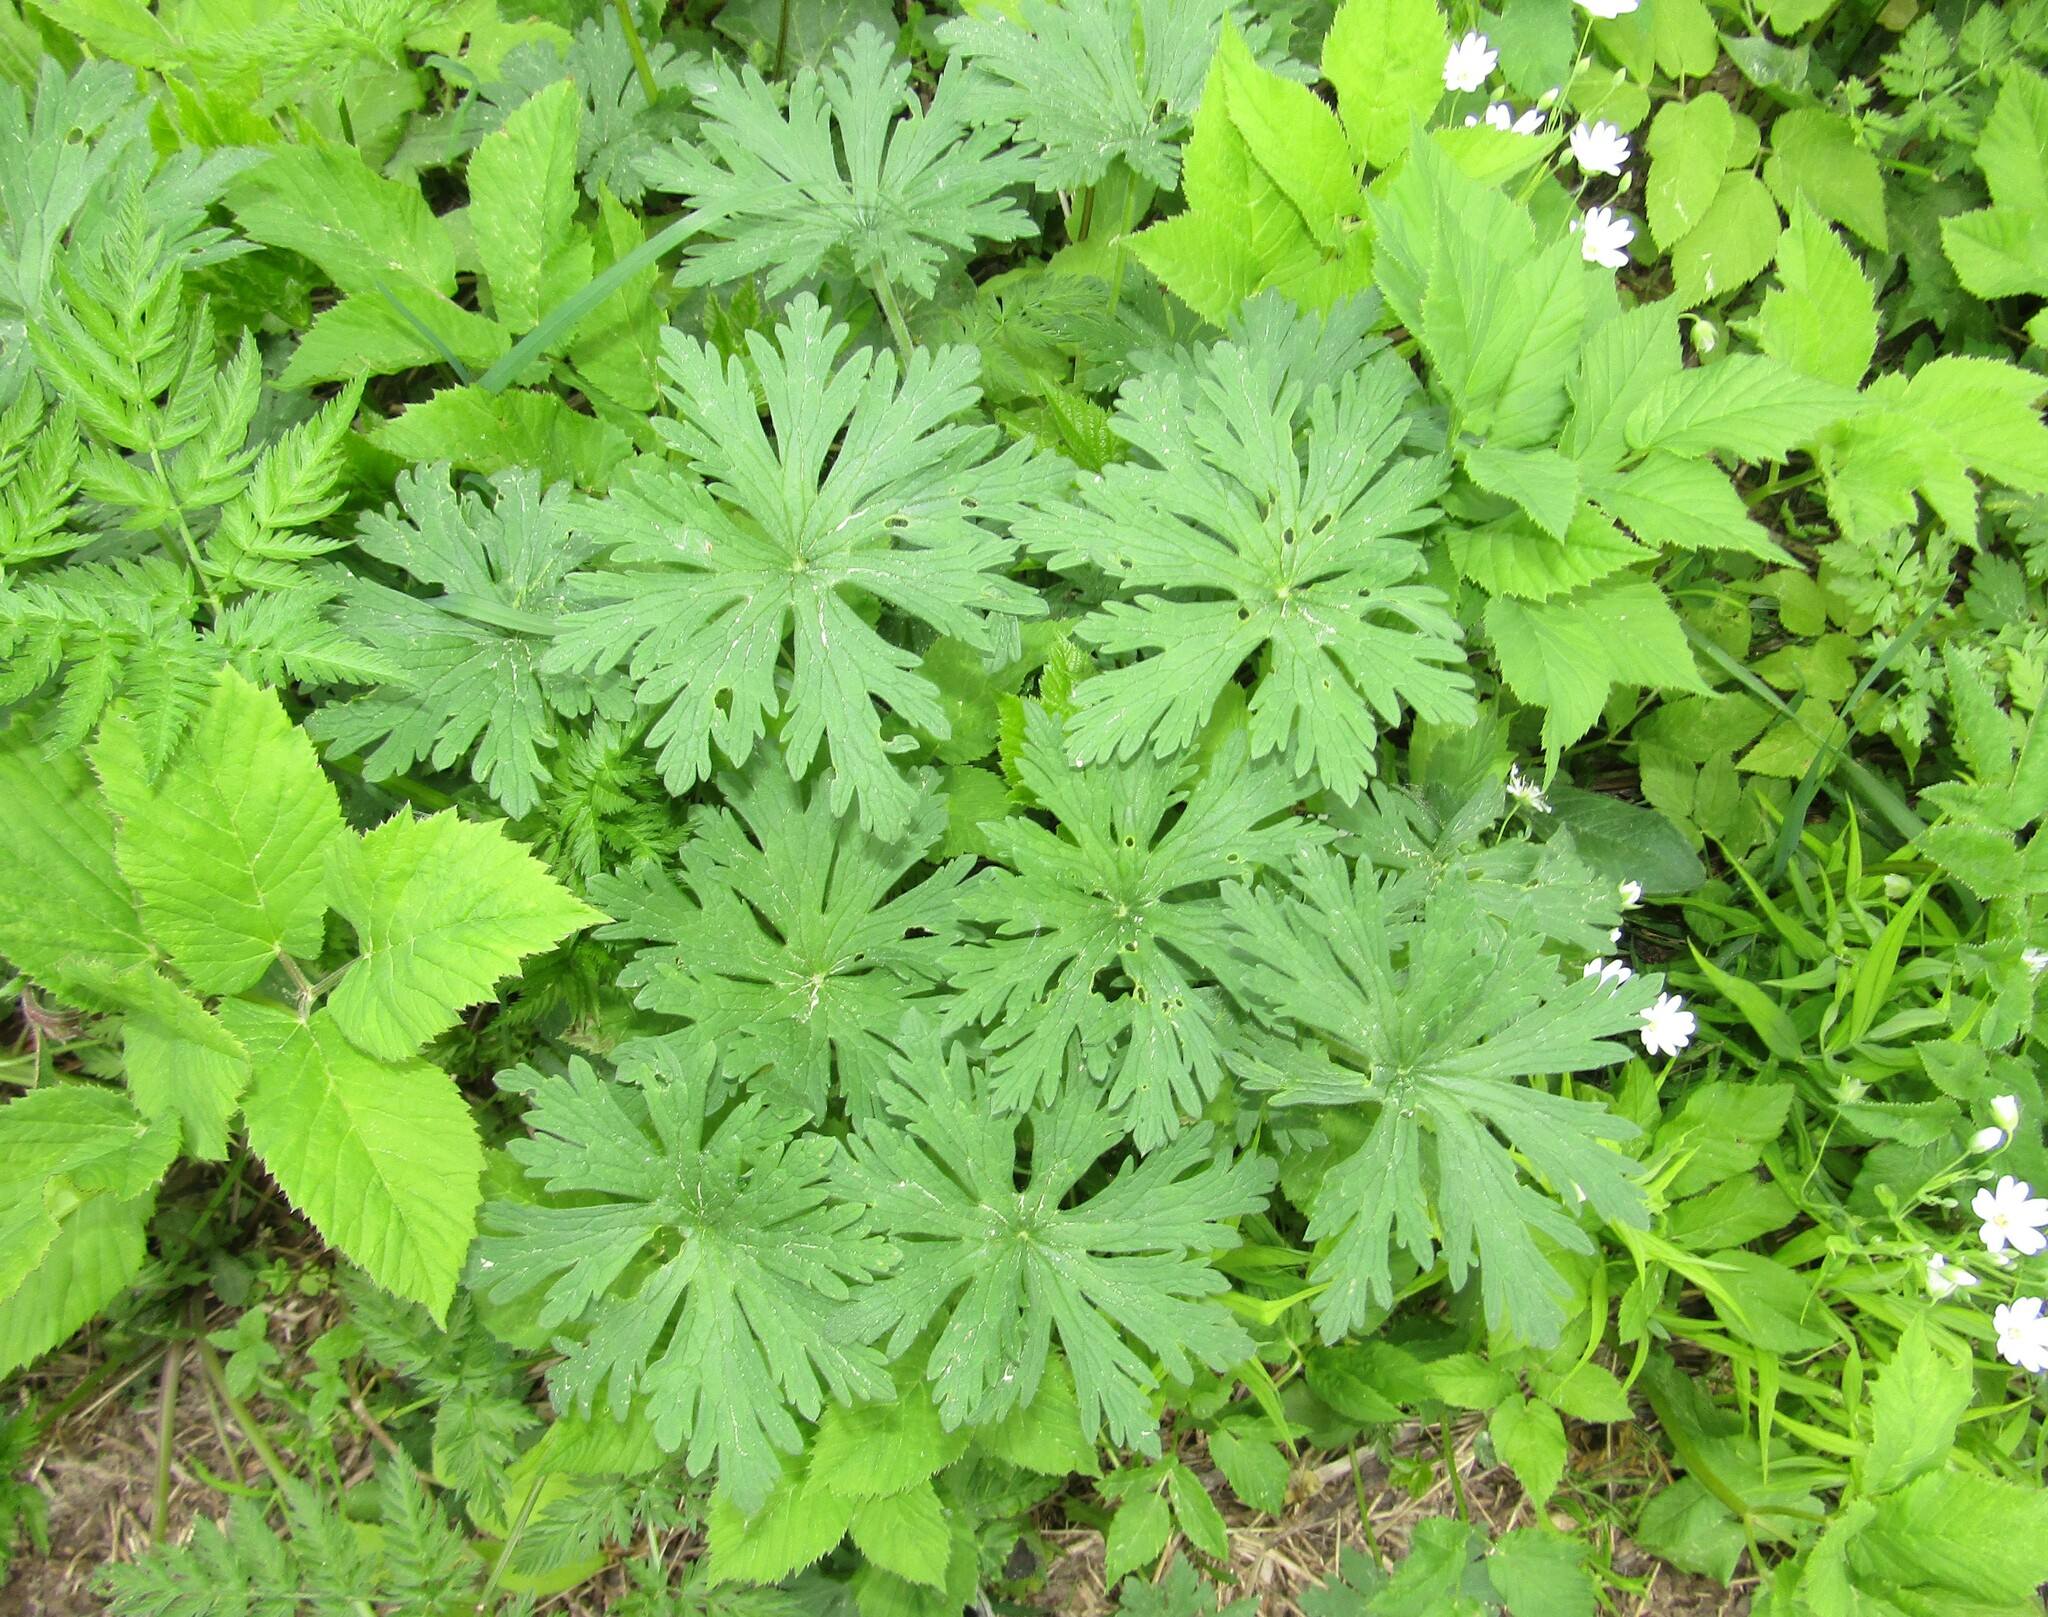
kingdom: Plantae
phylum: Tracheophyta
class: Magnoliopsida
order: Geraniales
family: Geraniaceae
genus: Geranium
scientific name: Geranium pratense
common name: Meadow crane's-bill
